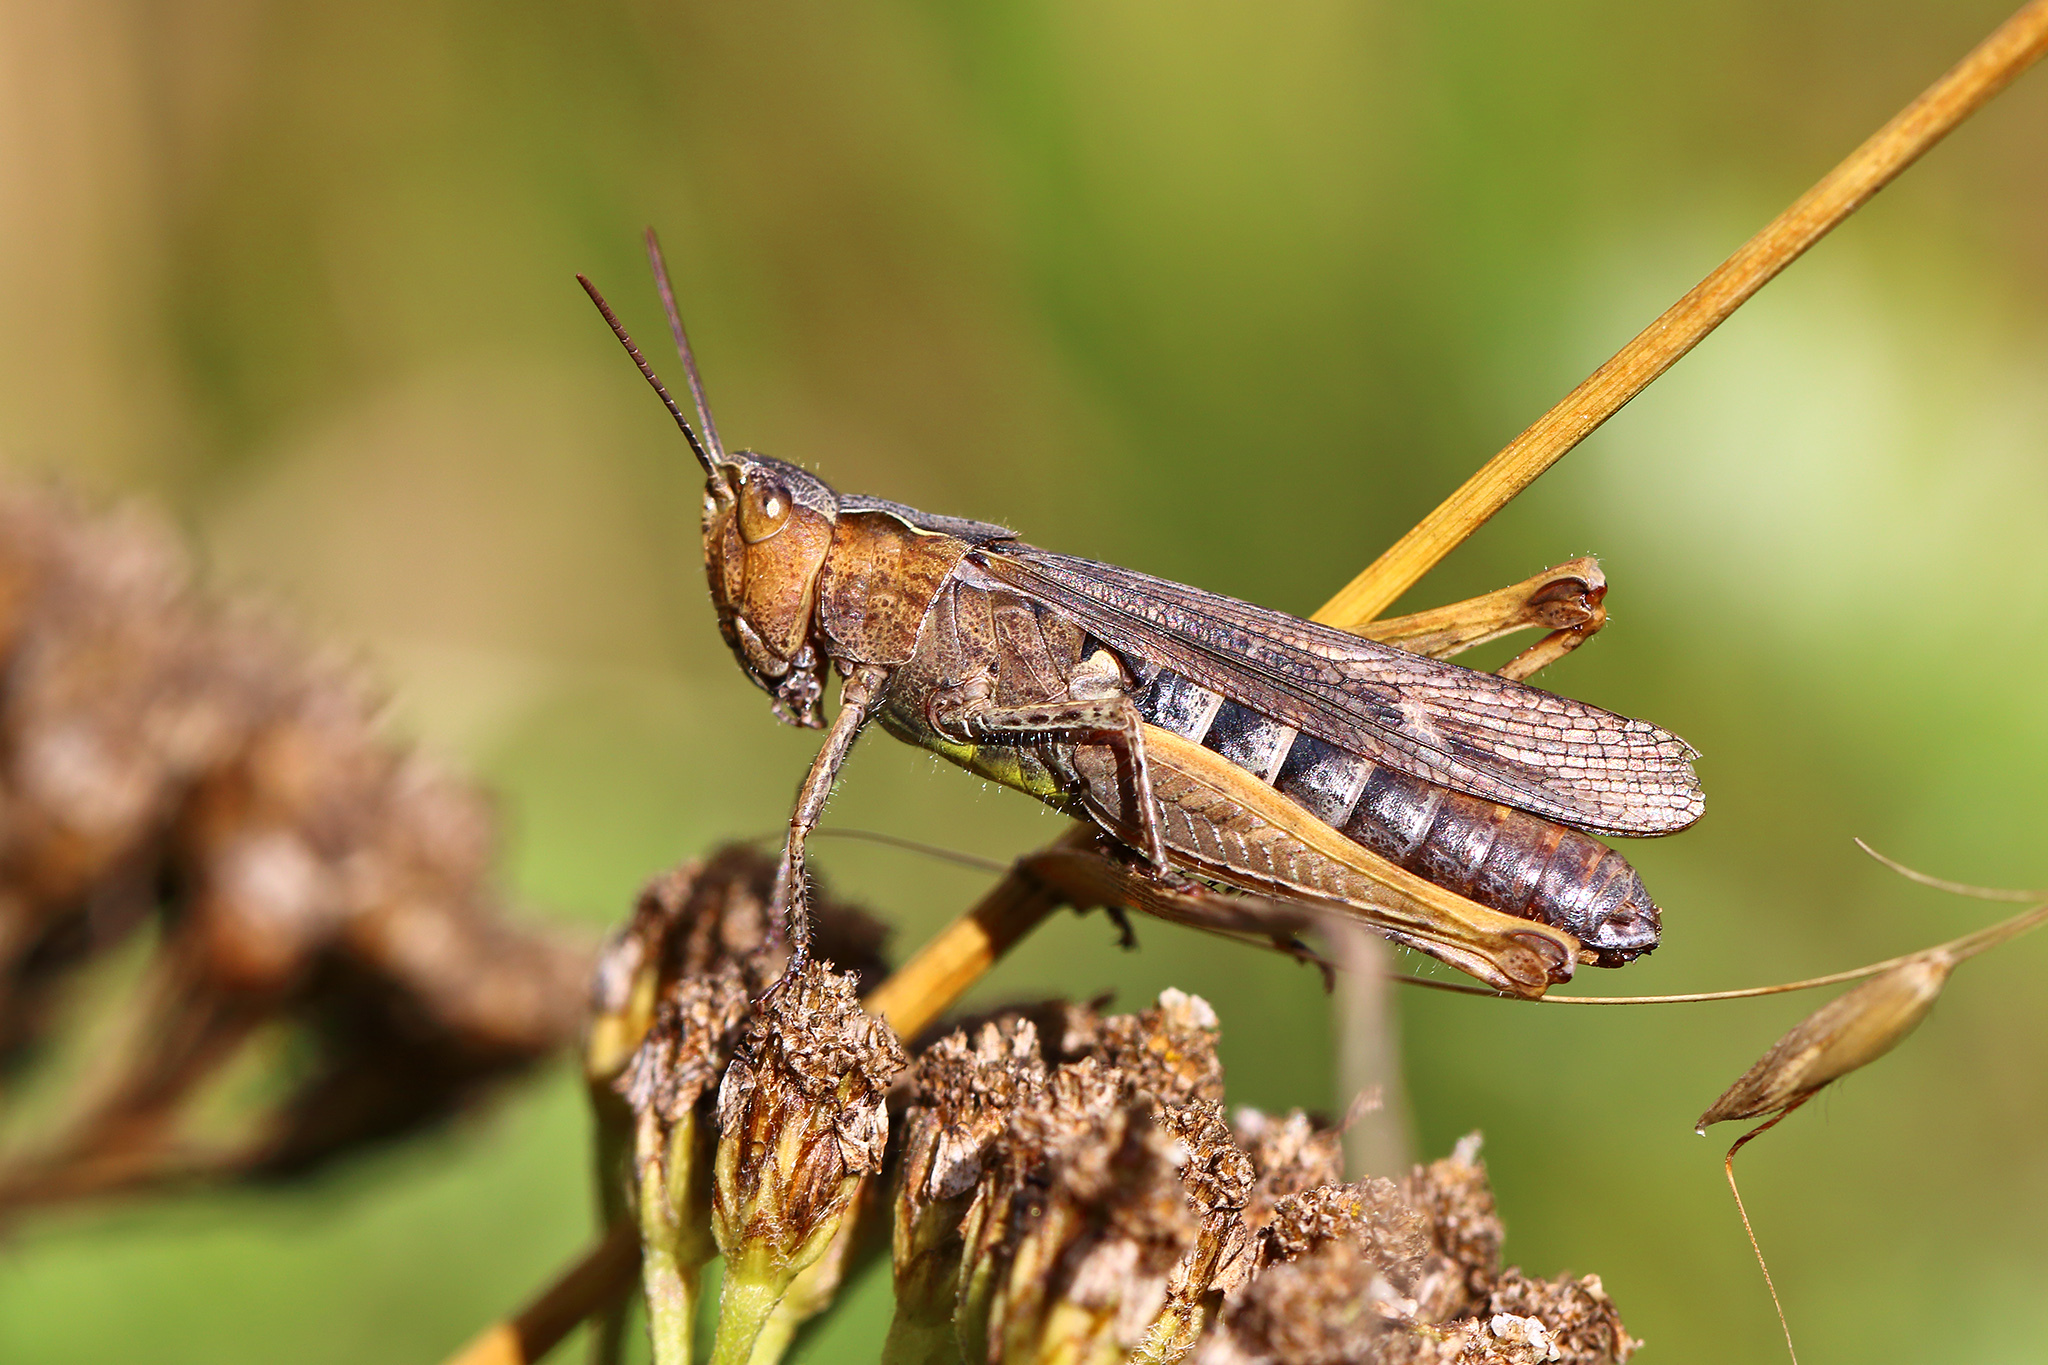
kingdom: Animalia
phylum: Arthropoda
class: Insecta
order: Orthoptera
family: Acrididae
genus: Chorthippus
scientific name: Chorthippus brunneus
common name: Field grasshopper
